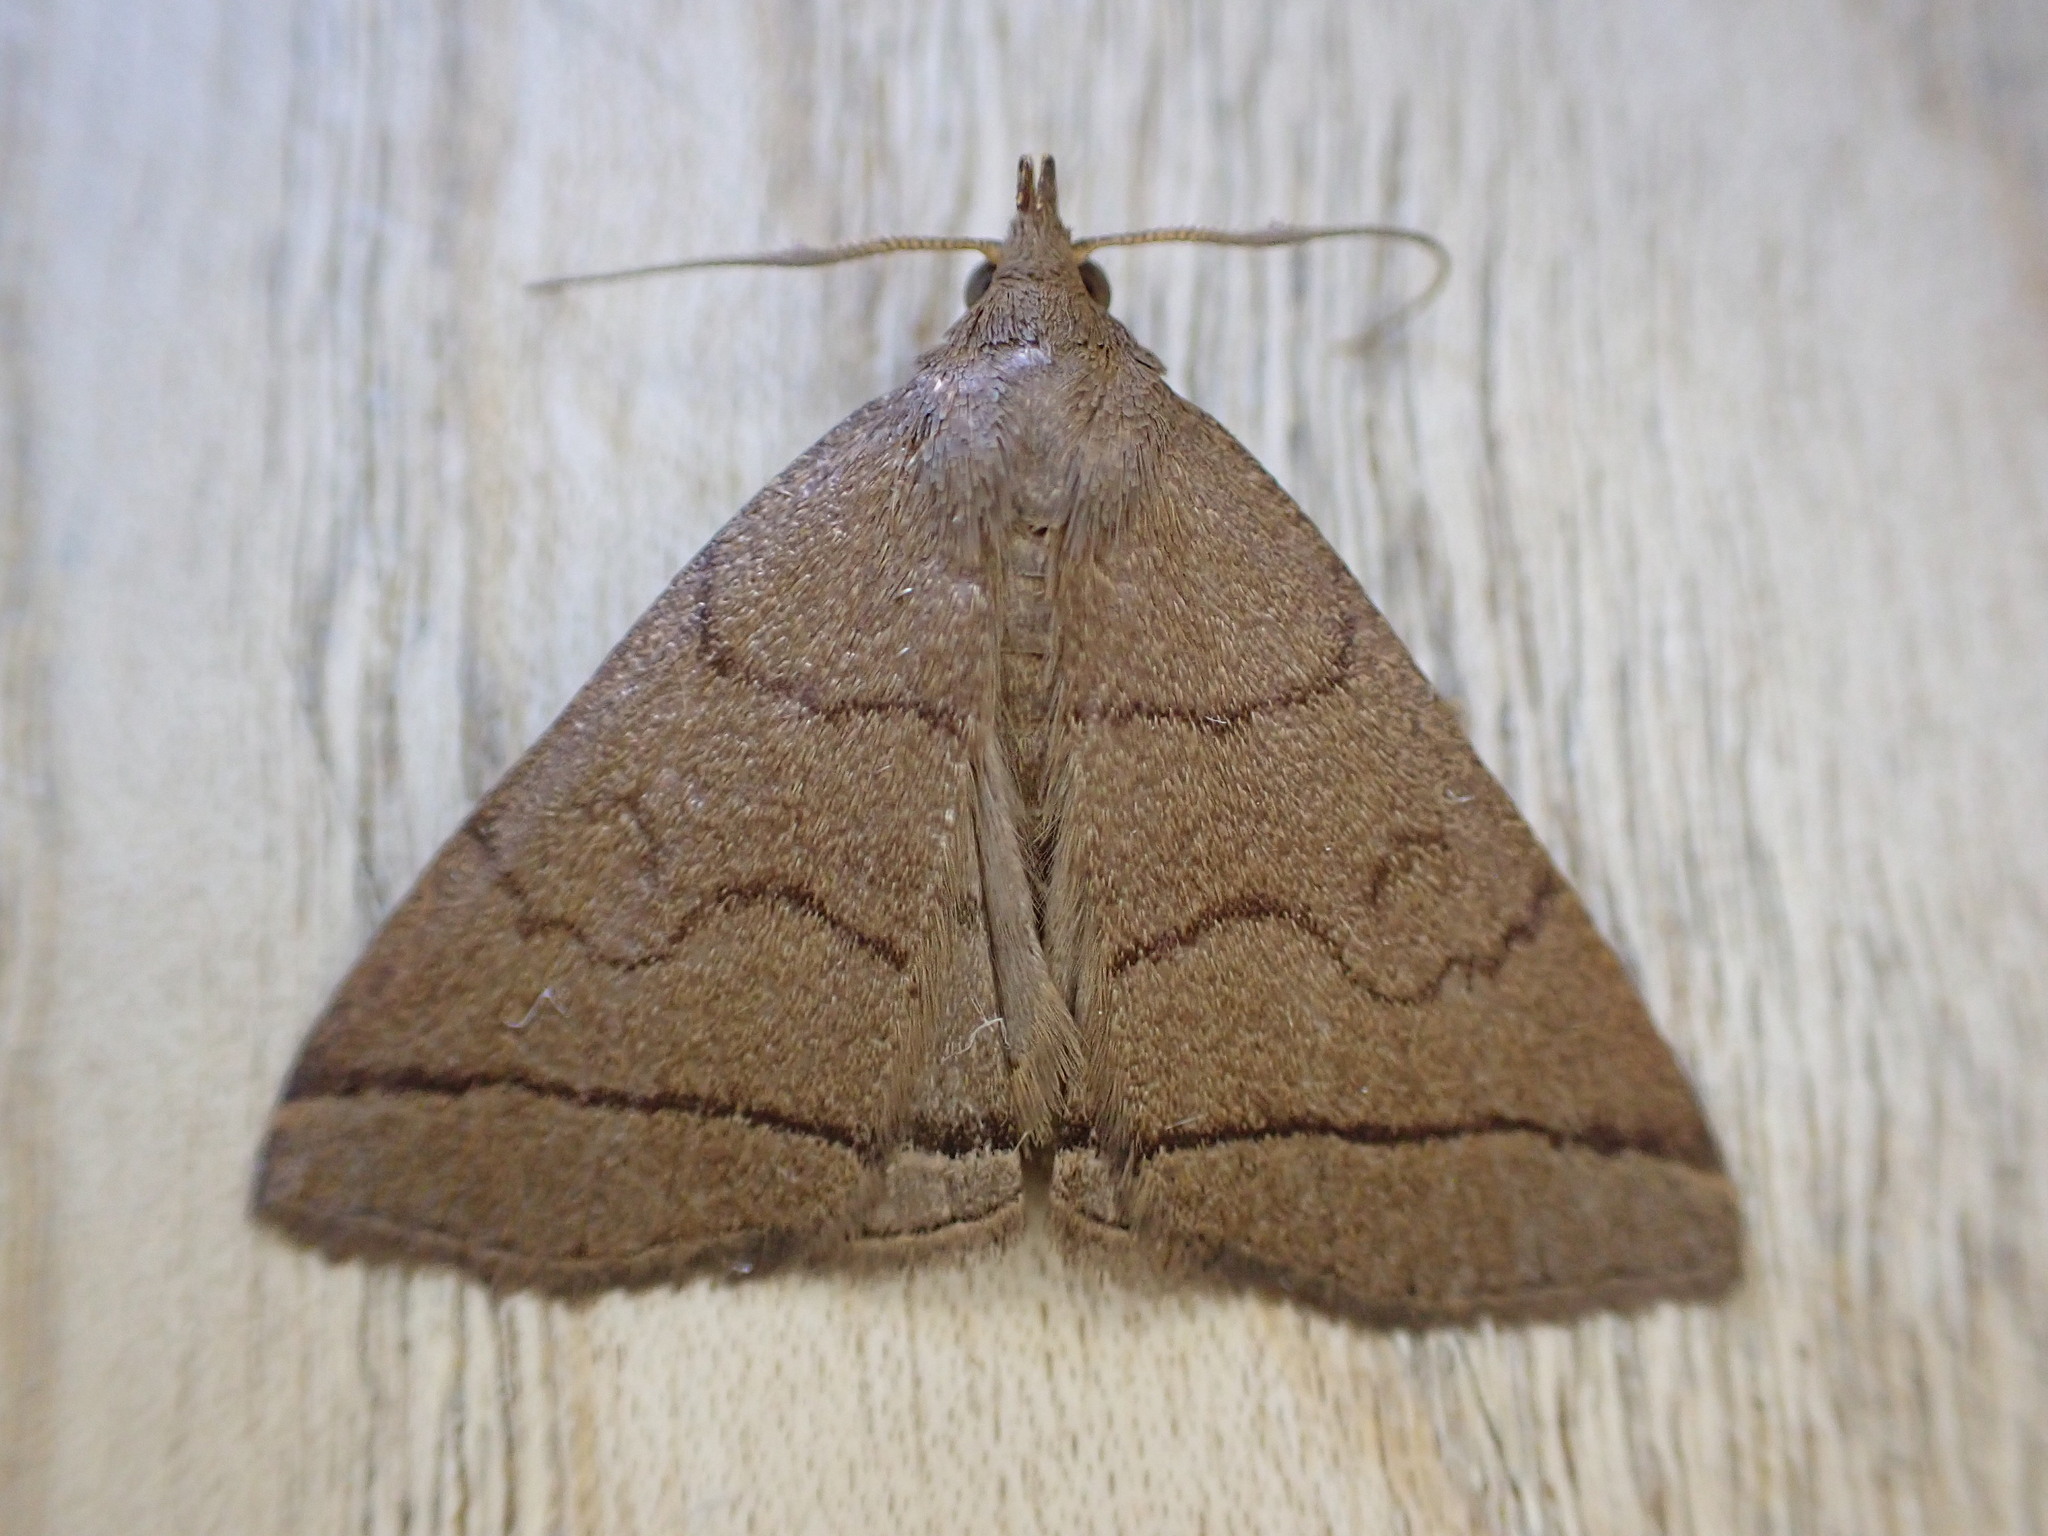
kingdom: Animalia
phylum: Arthropoda
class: Insecta
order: Lepidoptera
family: Erebidae
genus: Herminia
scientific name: Herminia tarsipennalis
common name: Fan-foot
